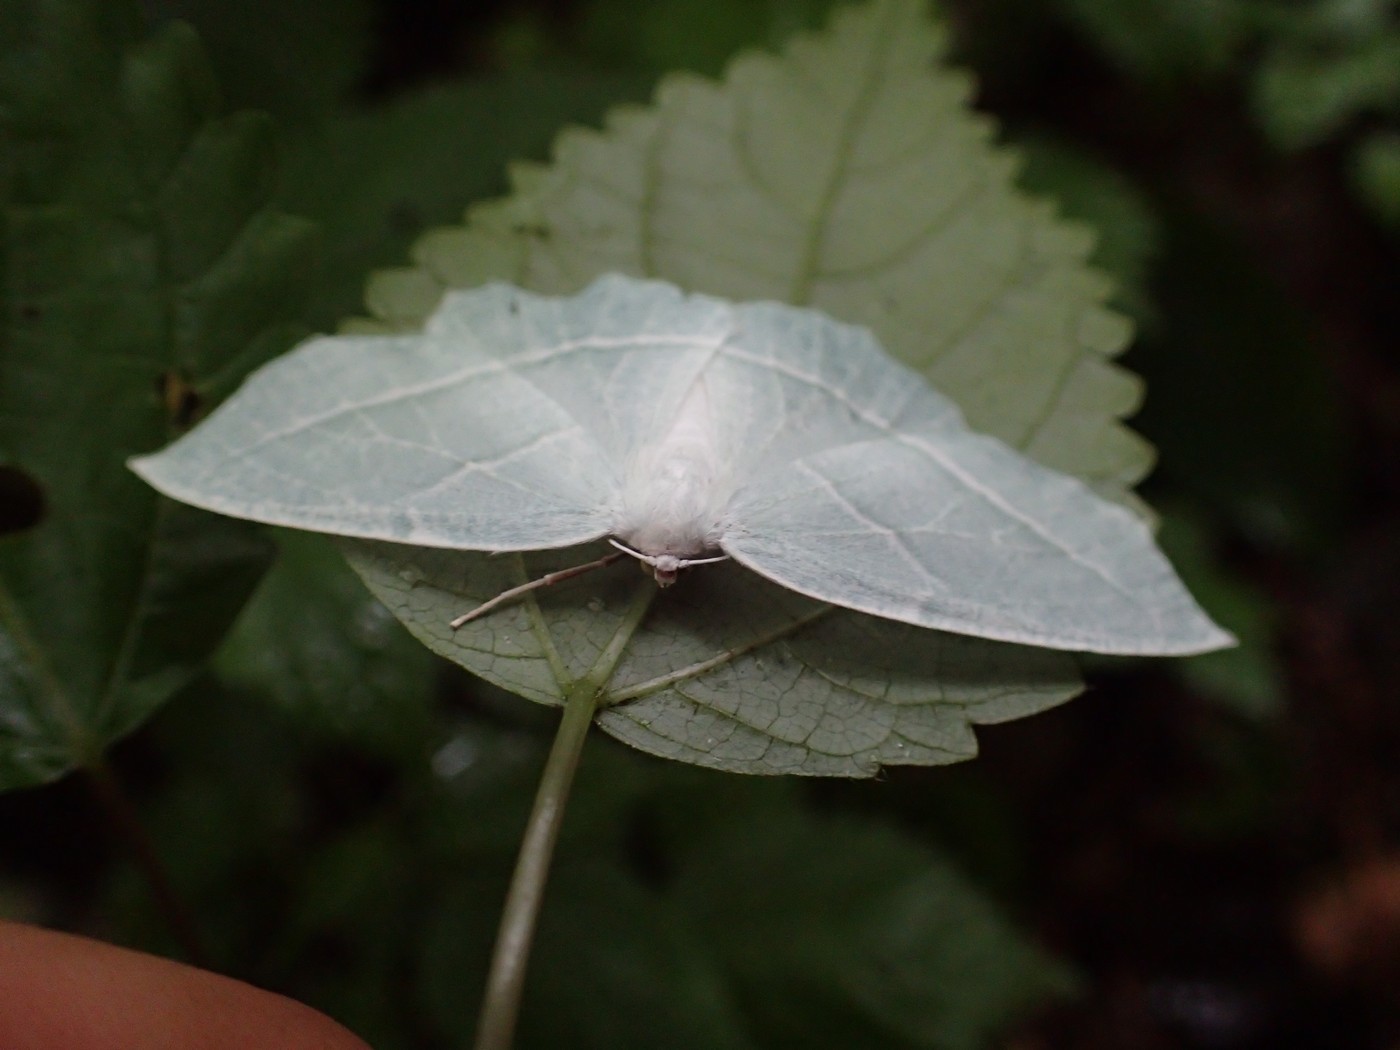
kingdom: Animalia
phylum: Arthropoda
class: Insecta
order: Lepidoptera
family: Geometridae
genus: Campaea
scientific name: Campaea perlata
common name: Fringed looper
